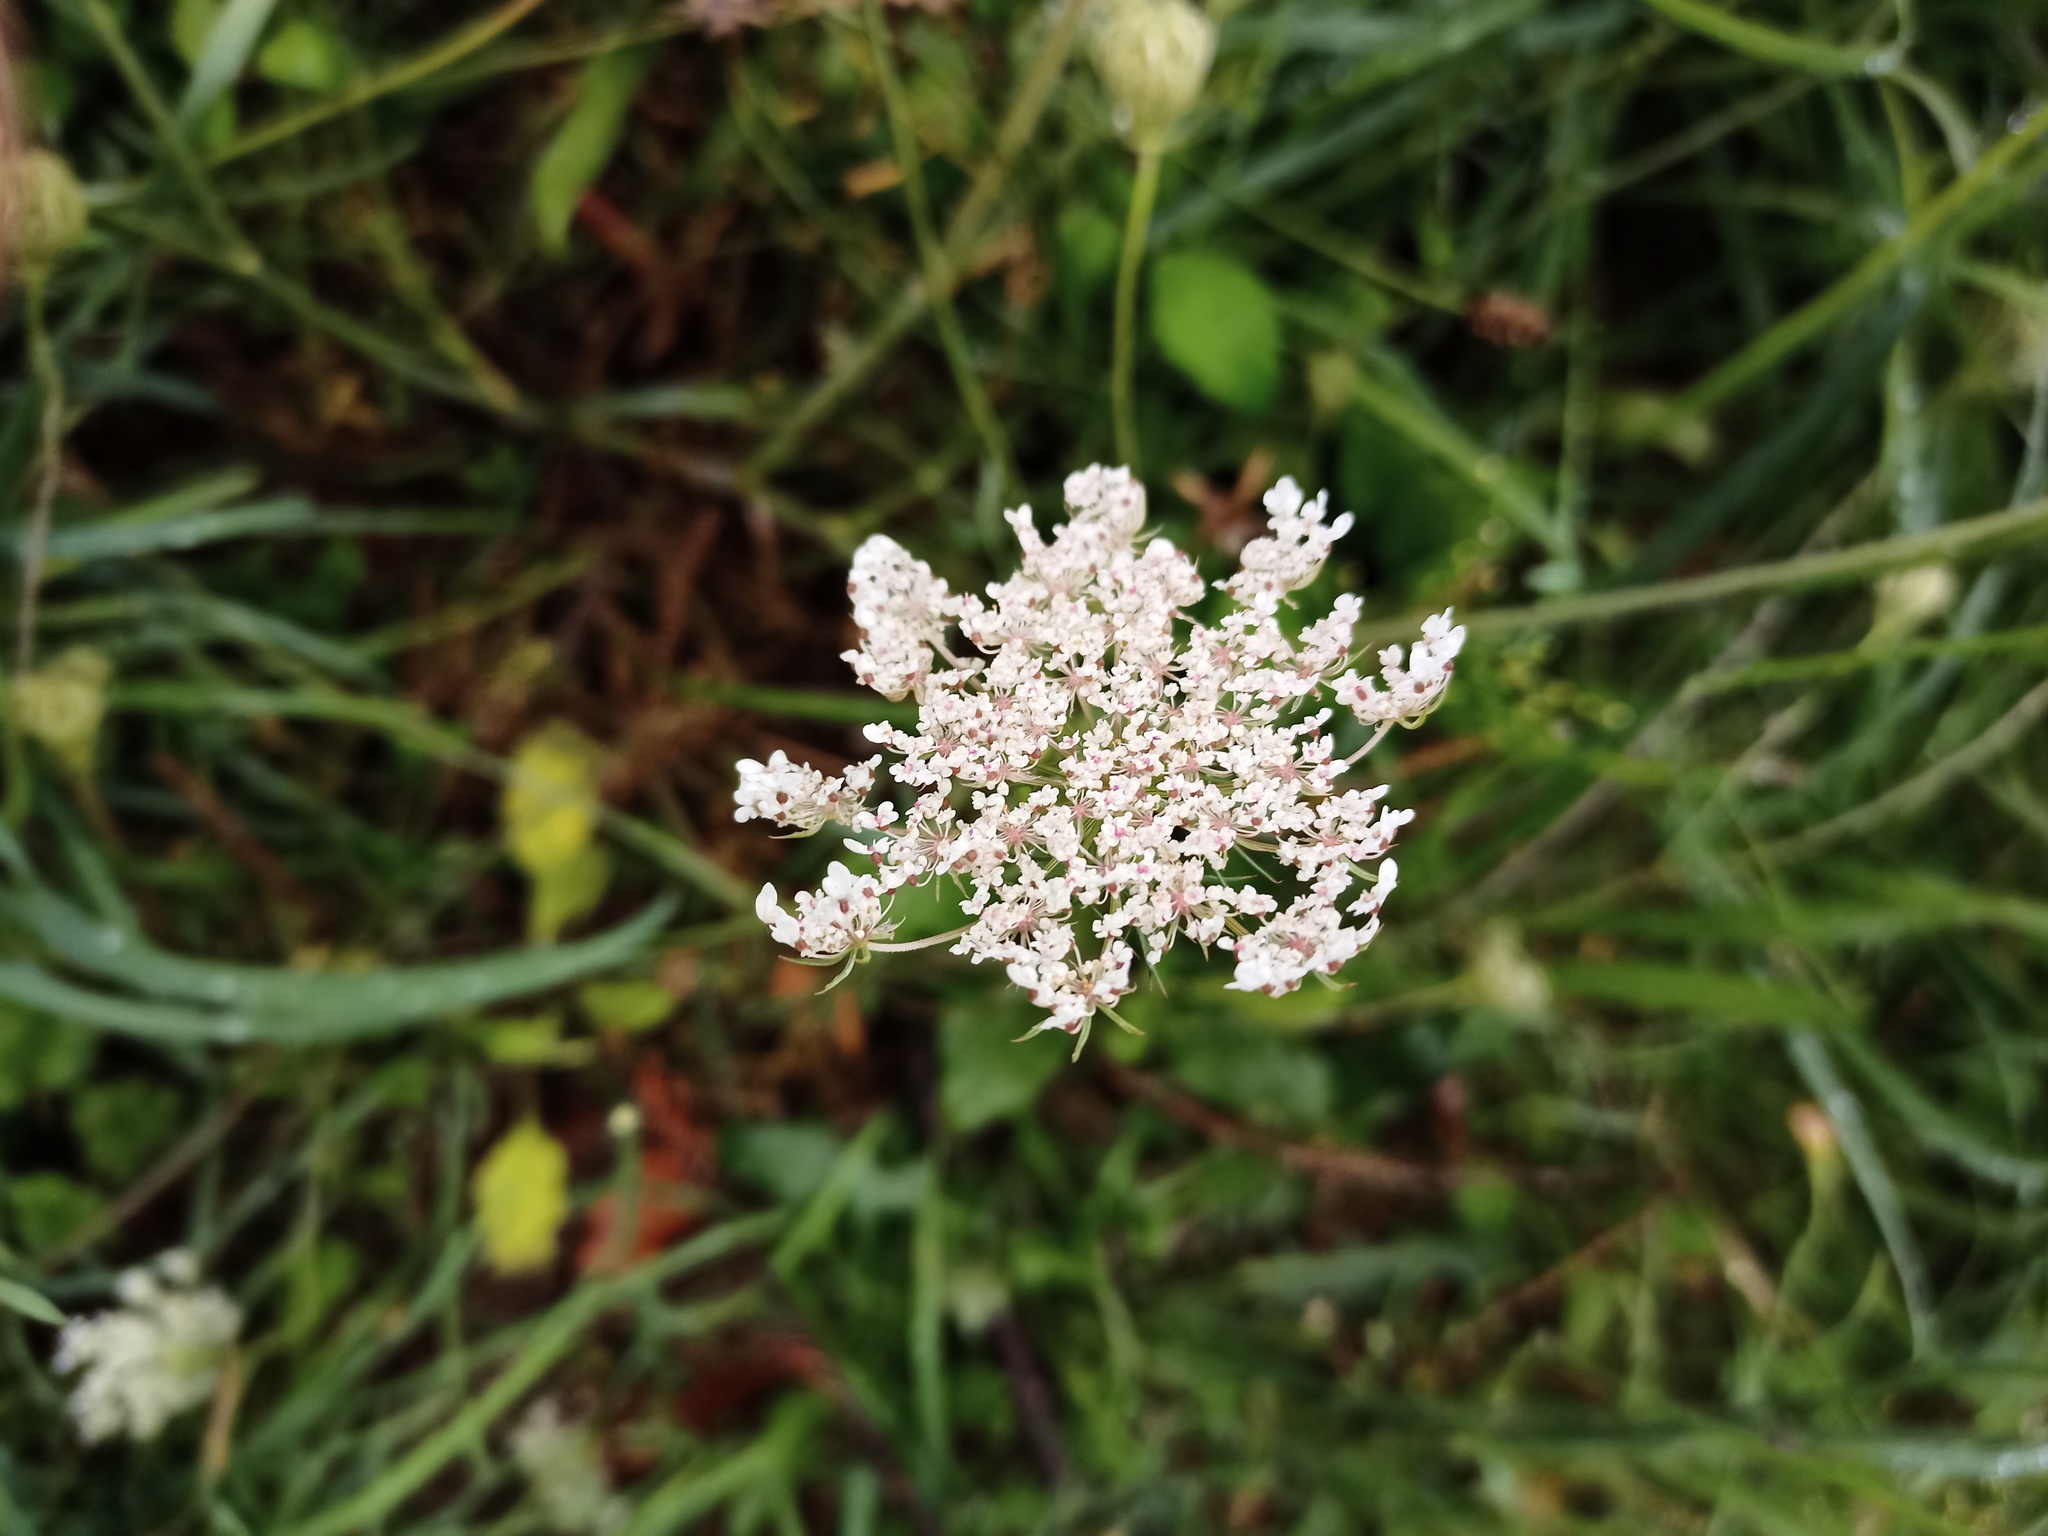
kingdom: Plantae
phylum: Tracheophyta
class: Magnoliopsida
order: Apiales
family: Apiaceae
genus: Daucus
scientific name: Daucus carota
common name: Wild carrot
